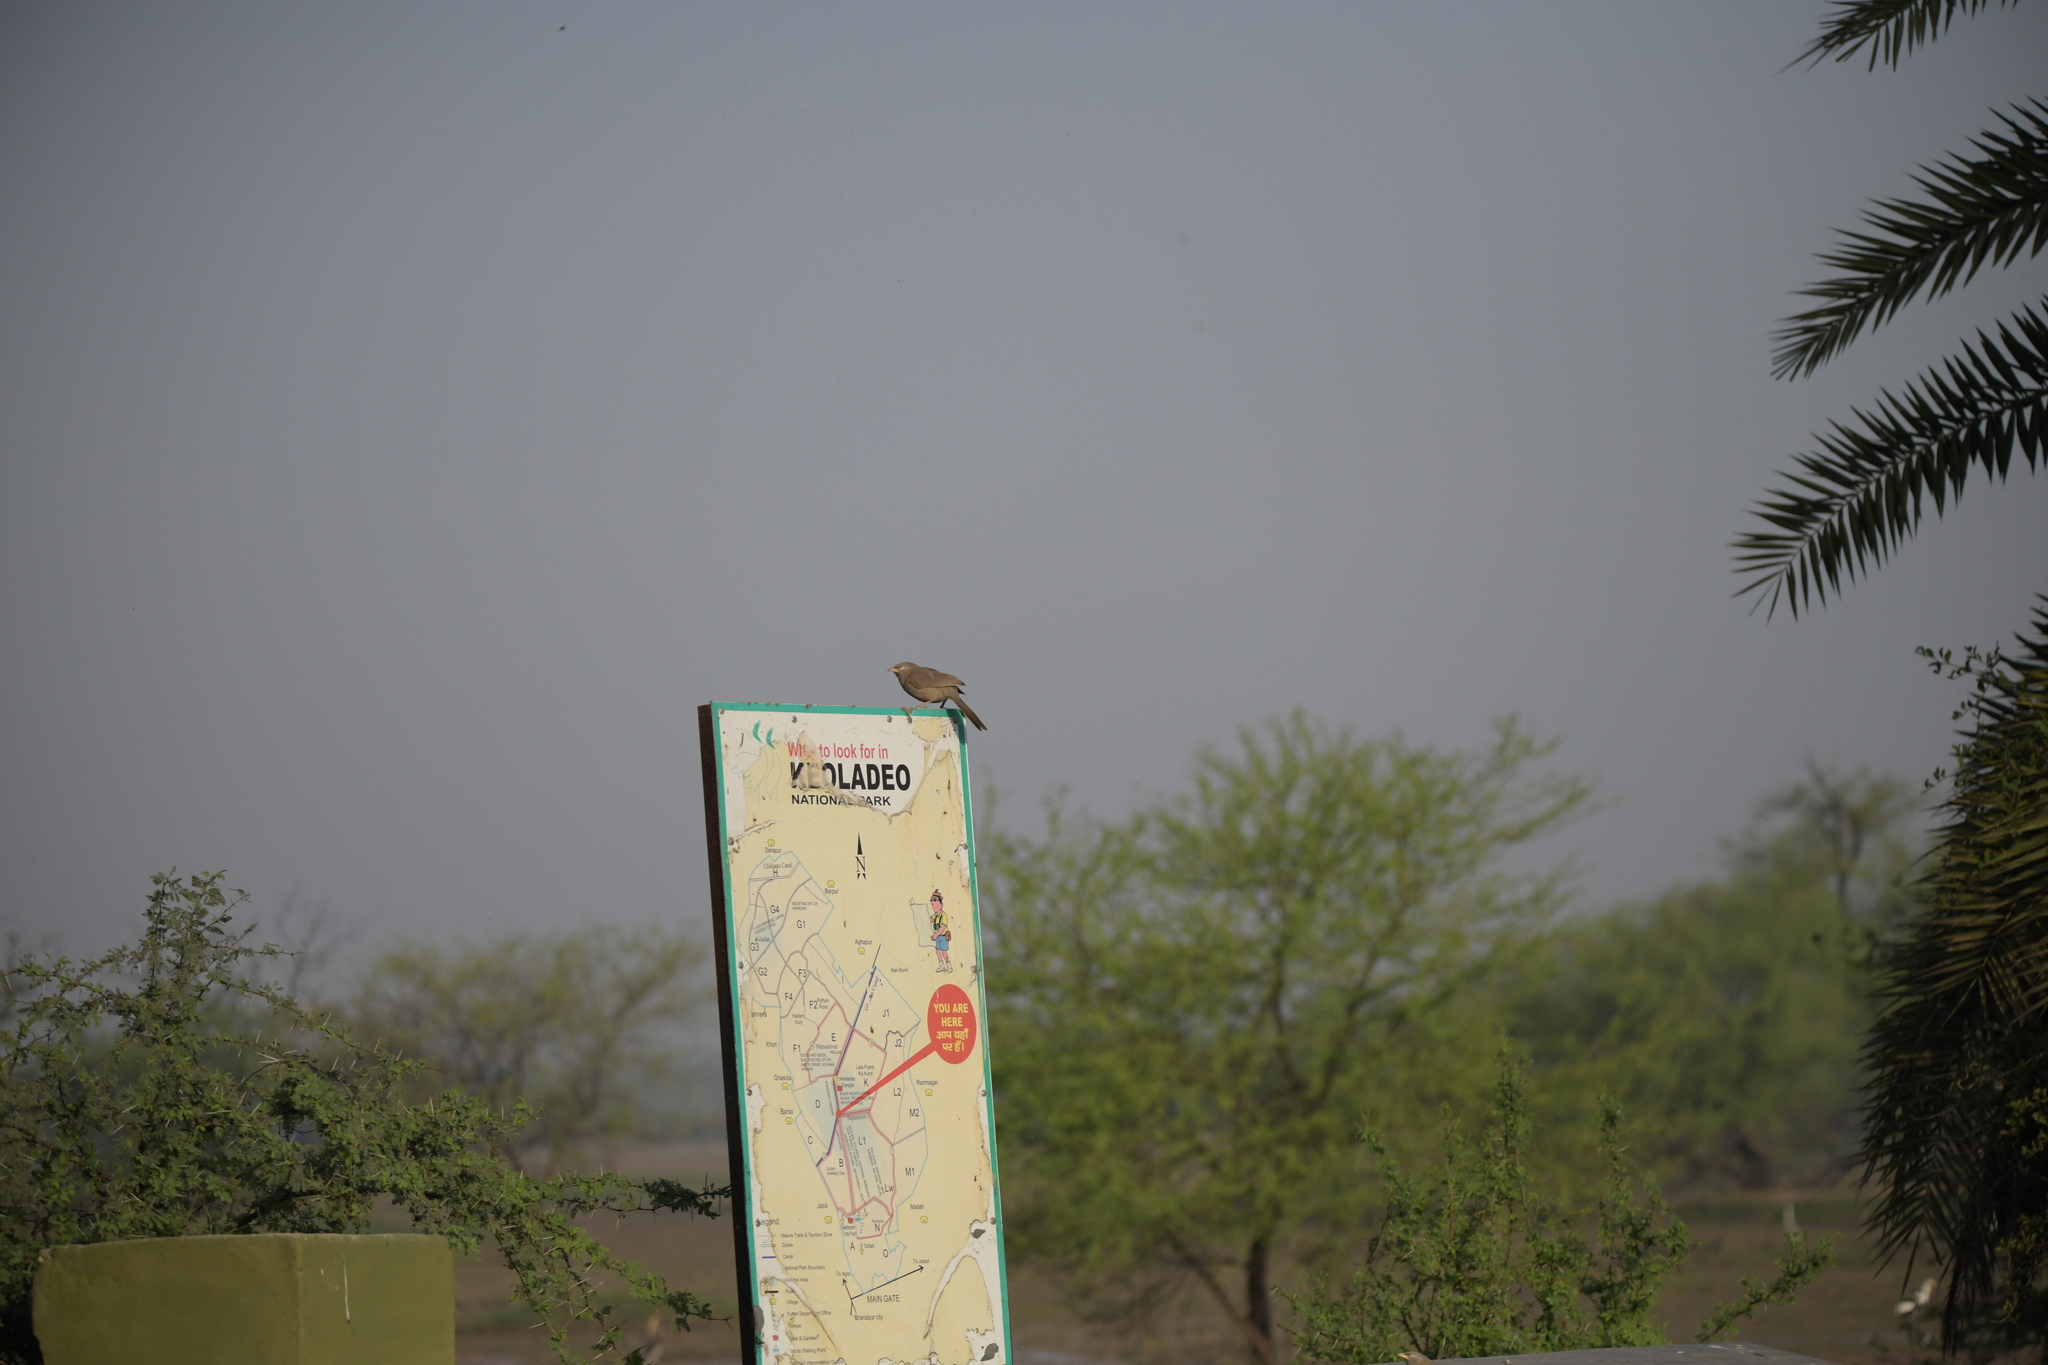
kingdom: Animalia
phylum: Chordata
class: Aves
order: Passeriformes
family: Leiothrichidae
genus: Turdoides
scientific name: Turdoides striata
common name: Jungle babbler
